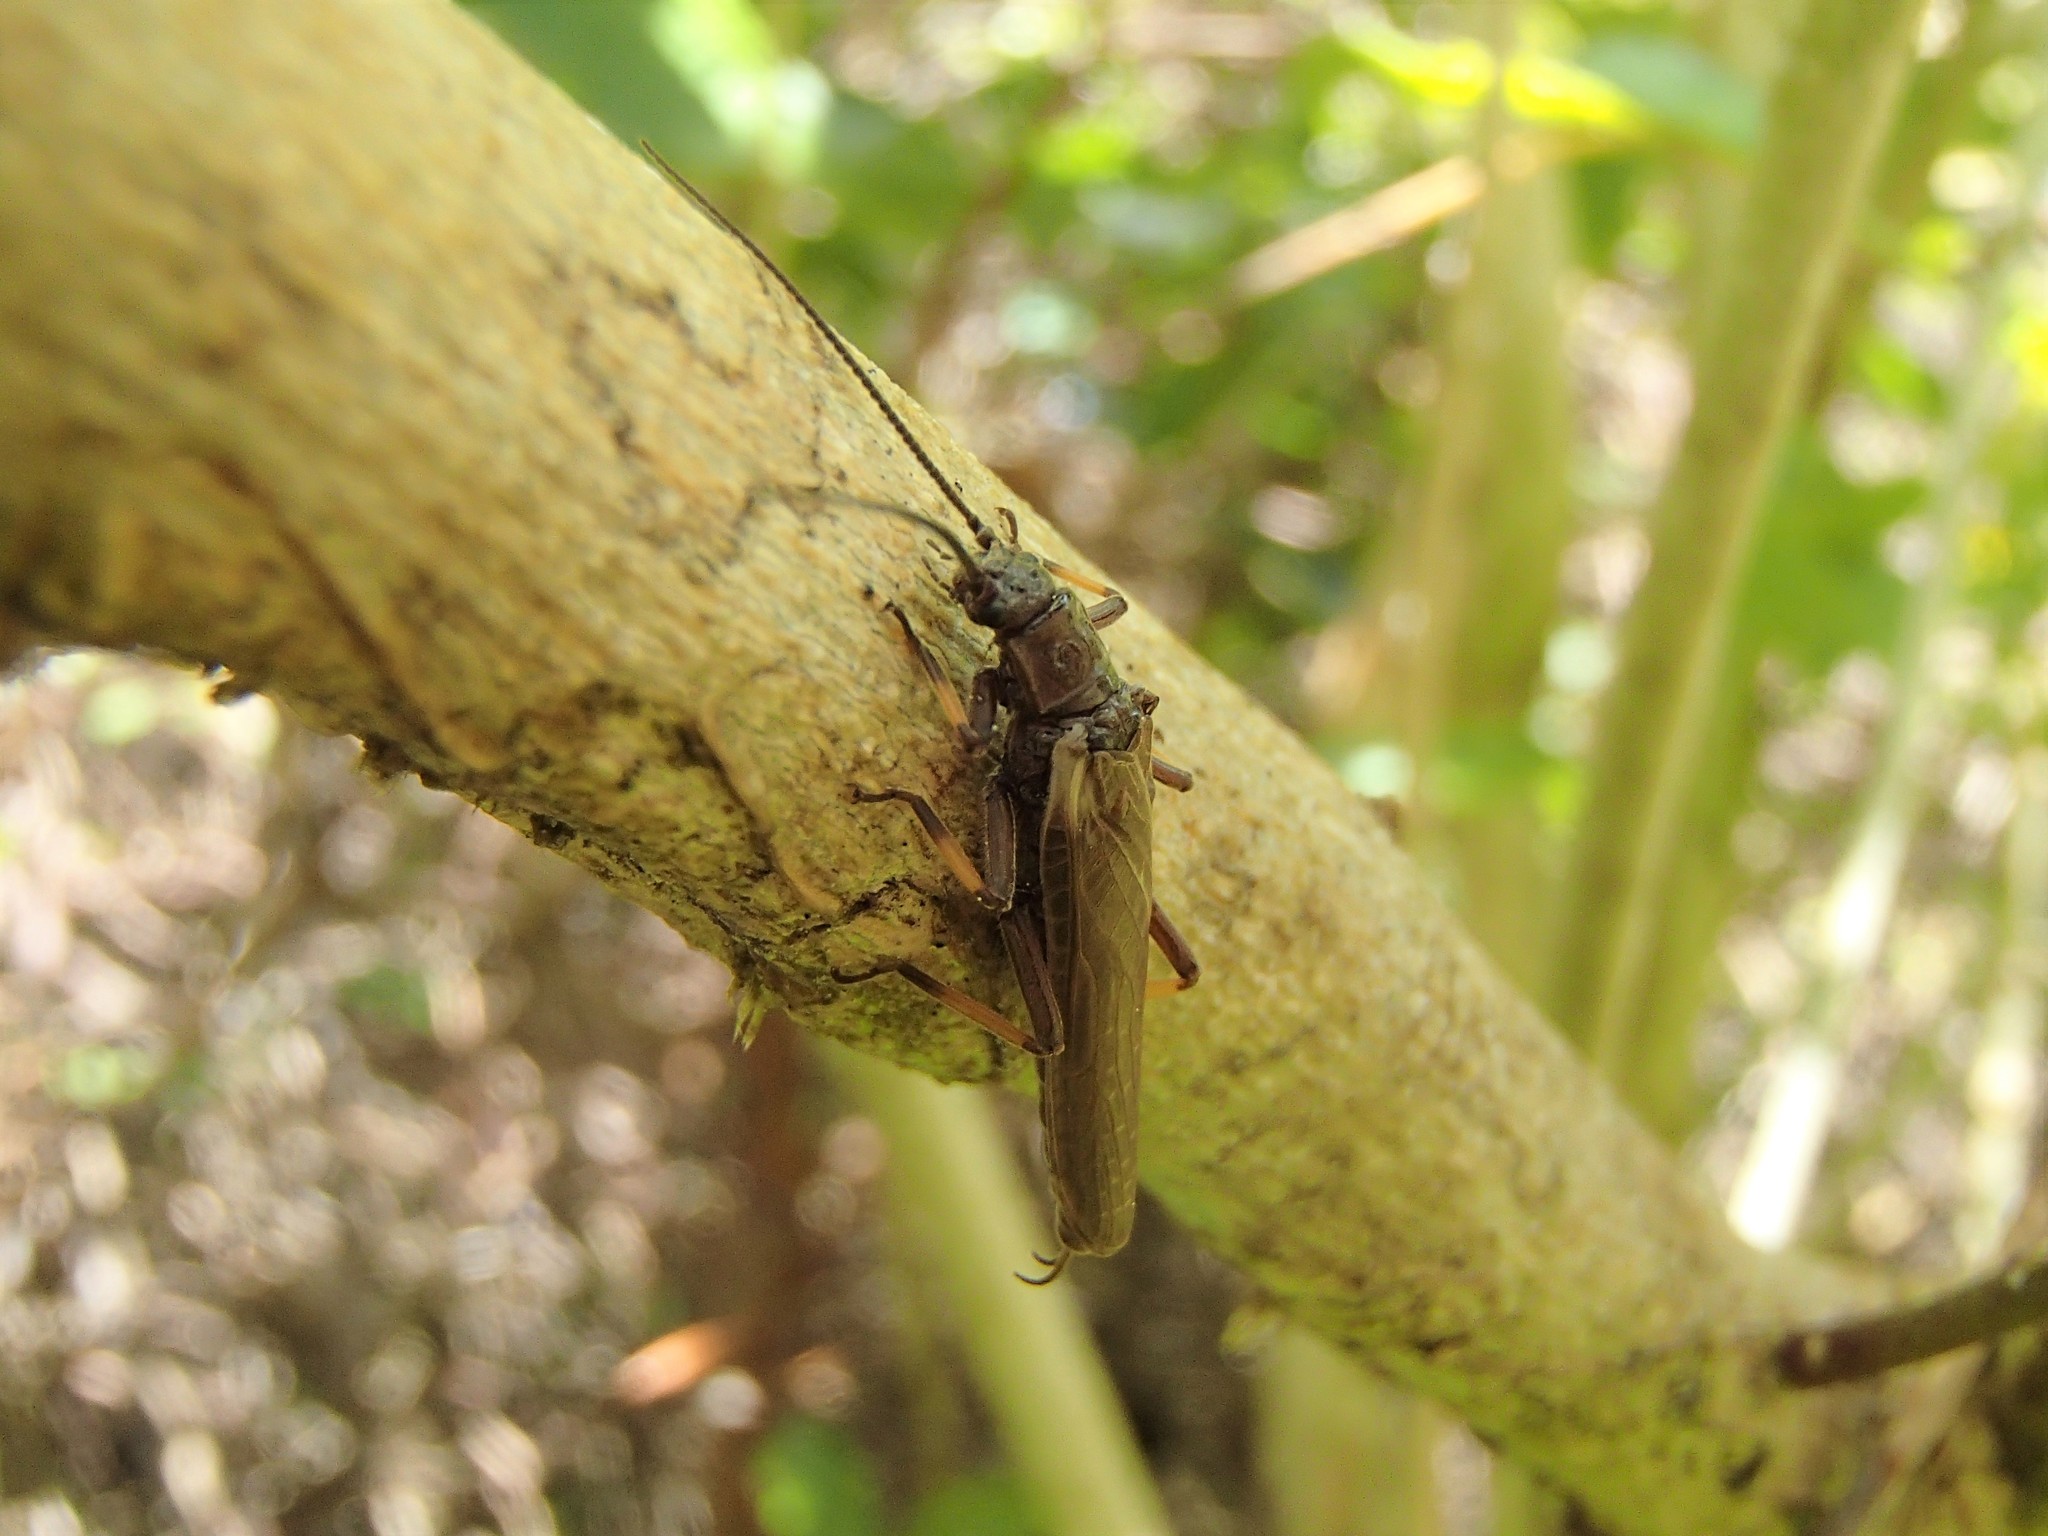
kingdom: Animalia
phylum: Arthropoda
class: Insecta
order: Plecoptera
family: Austroperlidae
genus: Austroperla
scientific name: Austroperla cyrene
